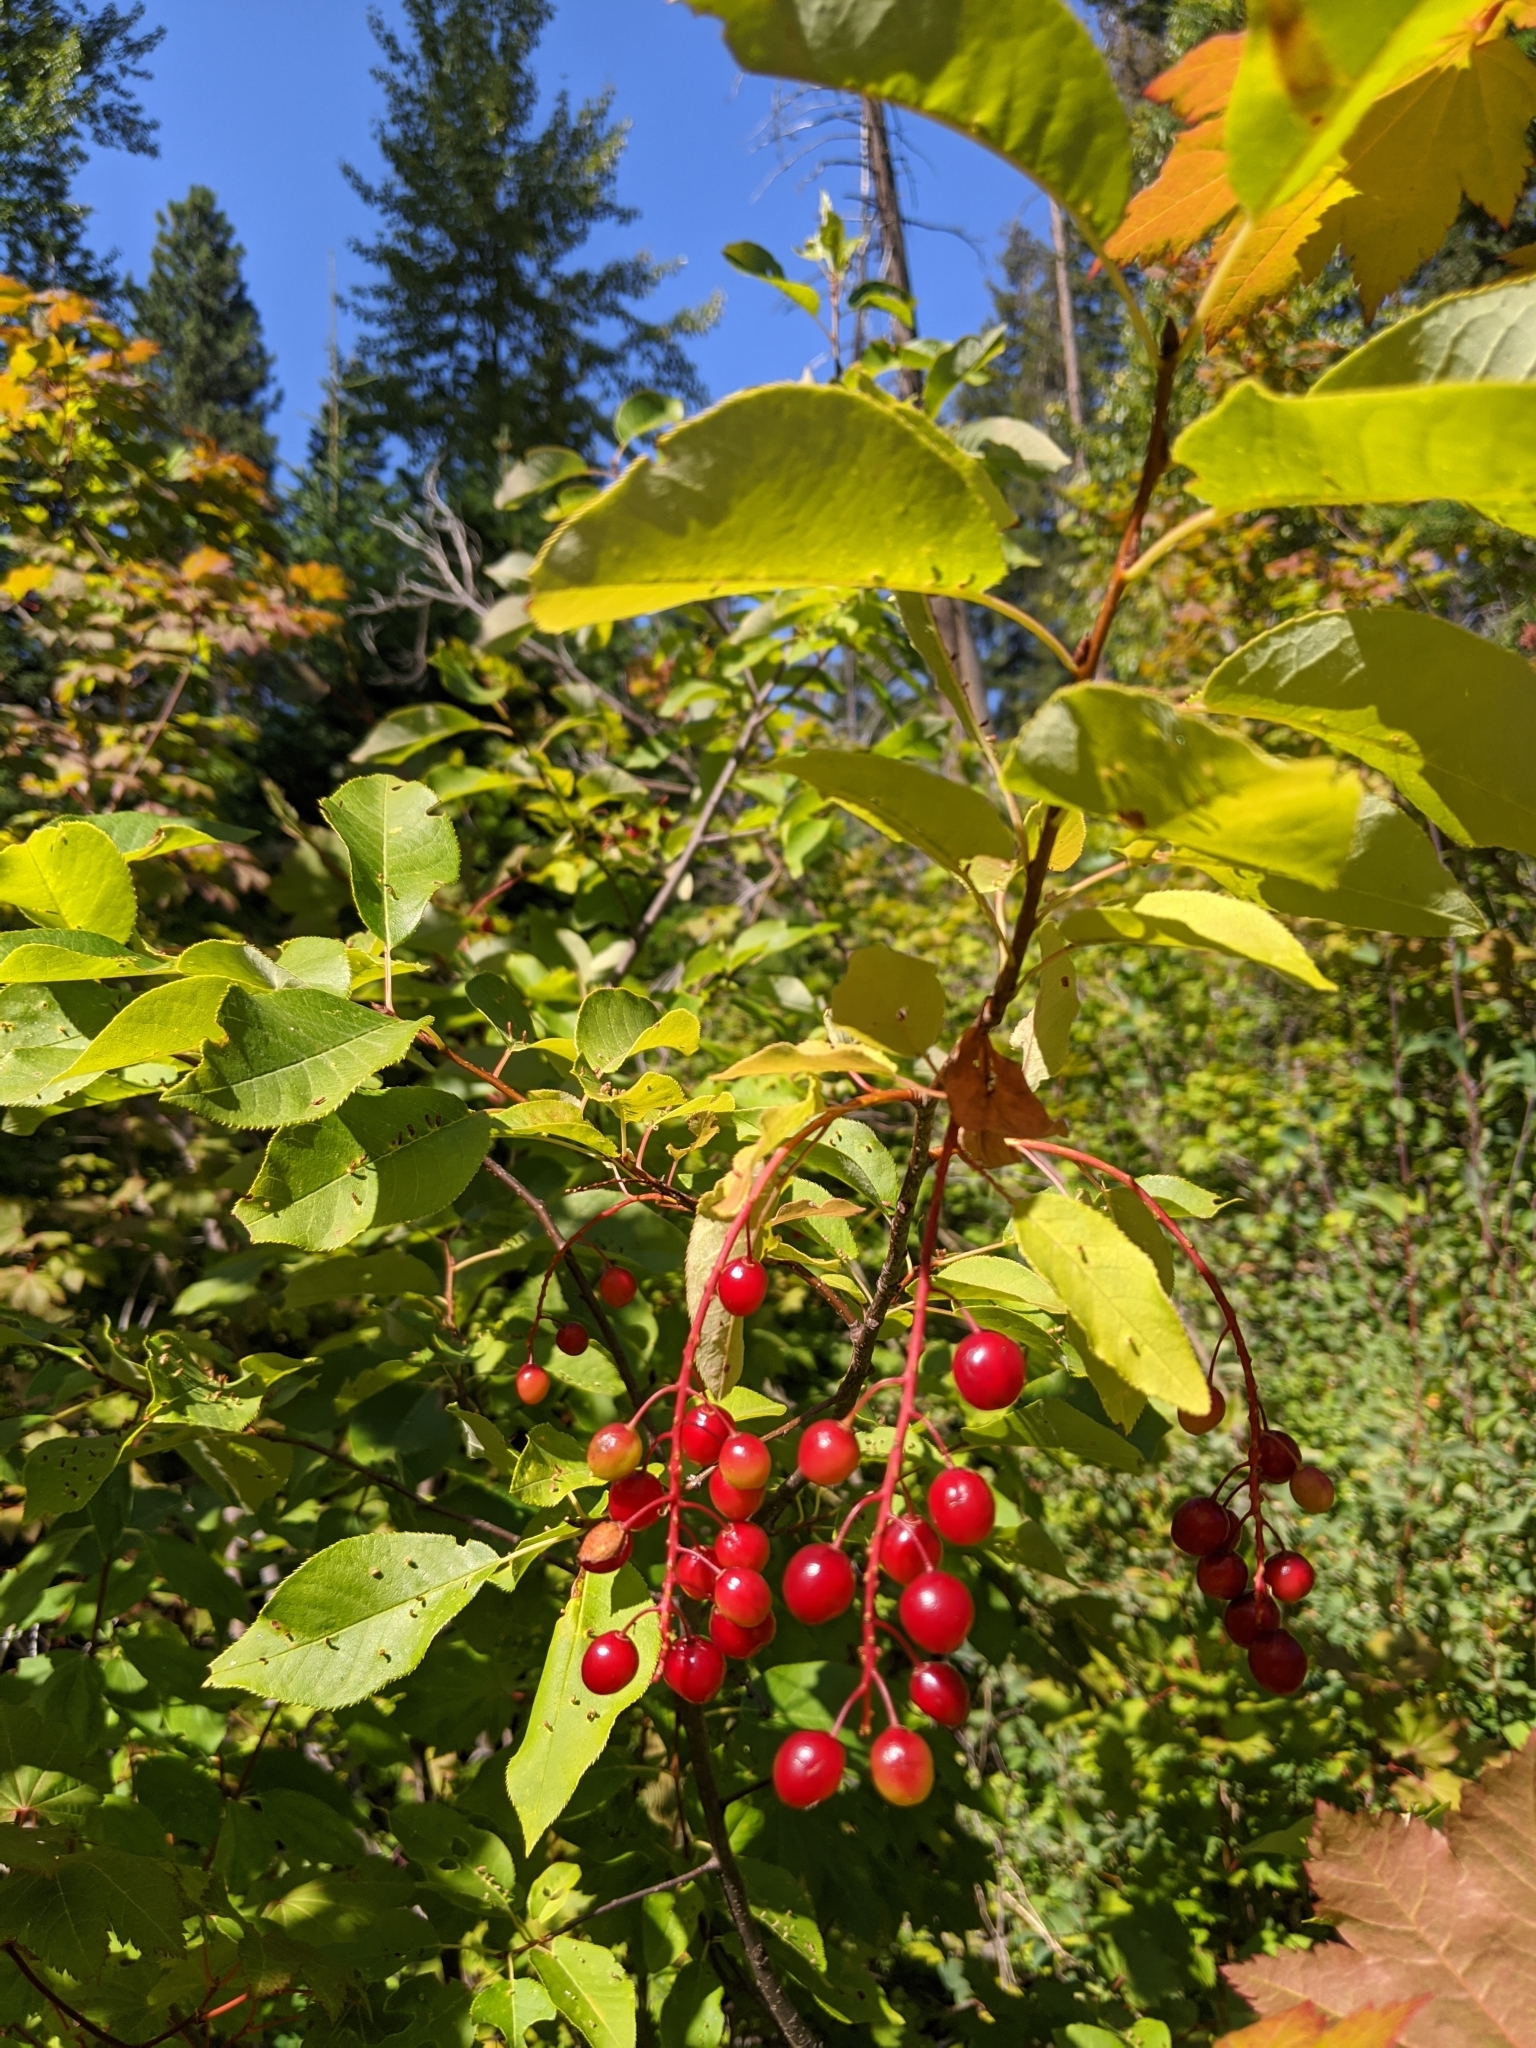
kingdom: Plantae
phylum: Tracheophyta
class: Magnoliopsida
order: Rosales
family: Rosaceae
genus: Prunus
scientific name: Prunus virginiana
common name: Chokecherry
